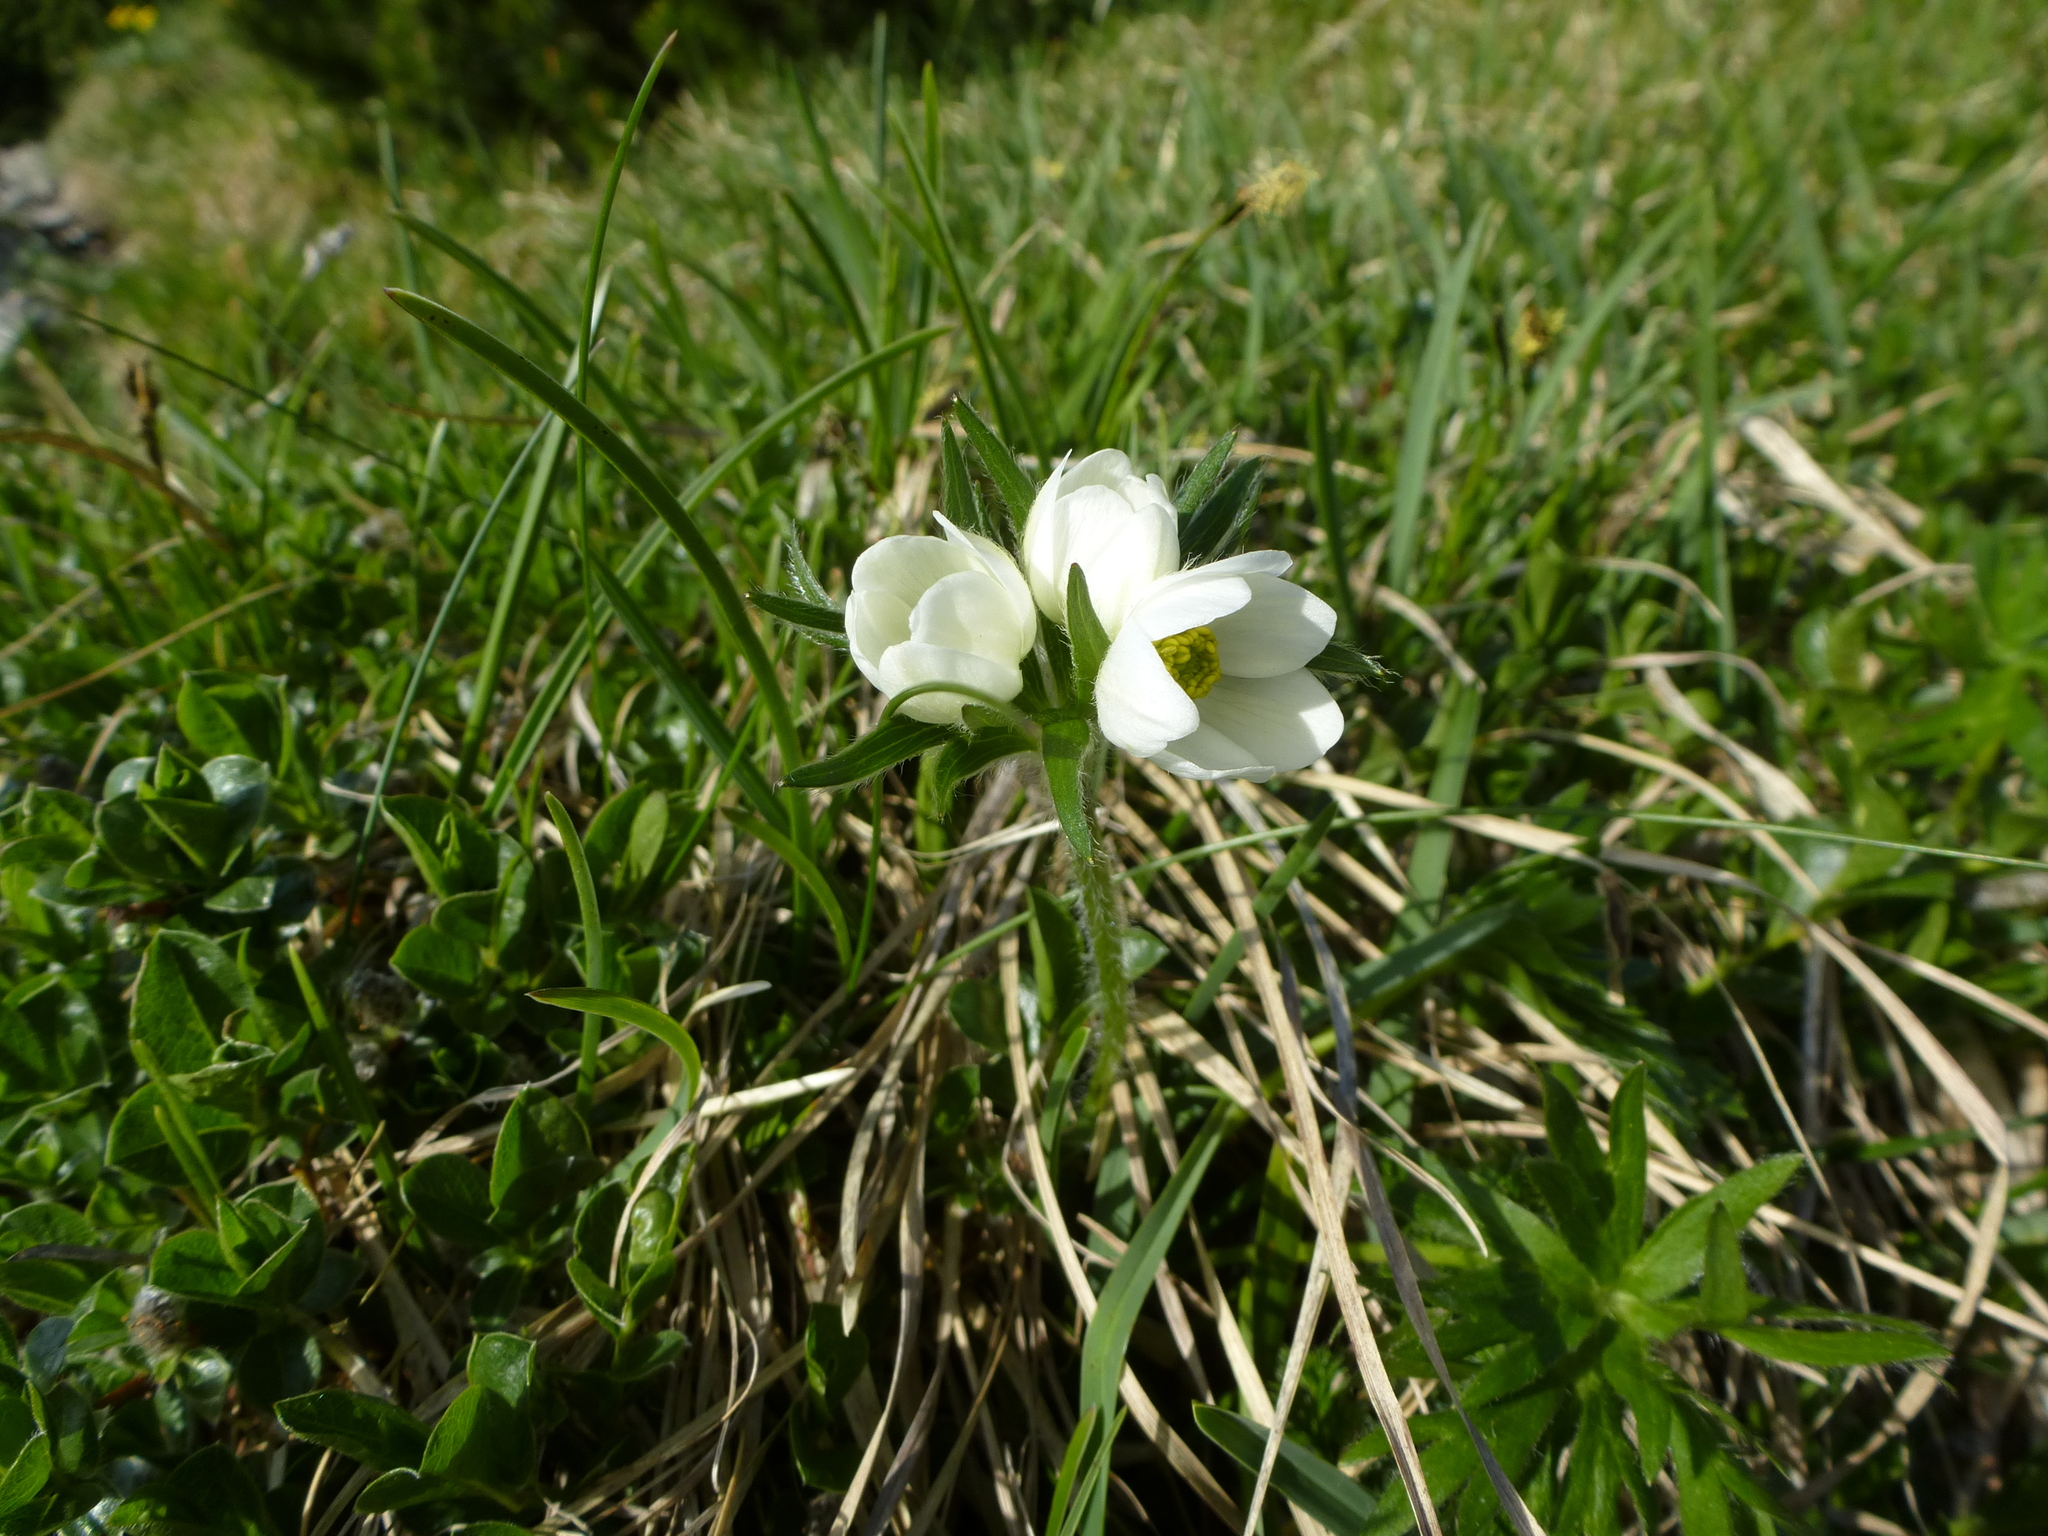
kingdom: Plantae
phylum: Tracheophyta
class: Magnoliopsida
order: Ranunculales
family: Ranunculaceae
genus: Anemonastrum
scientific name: Anemonastrum narcissiflorum
